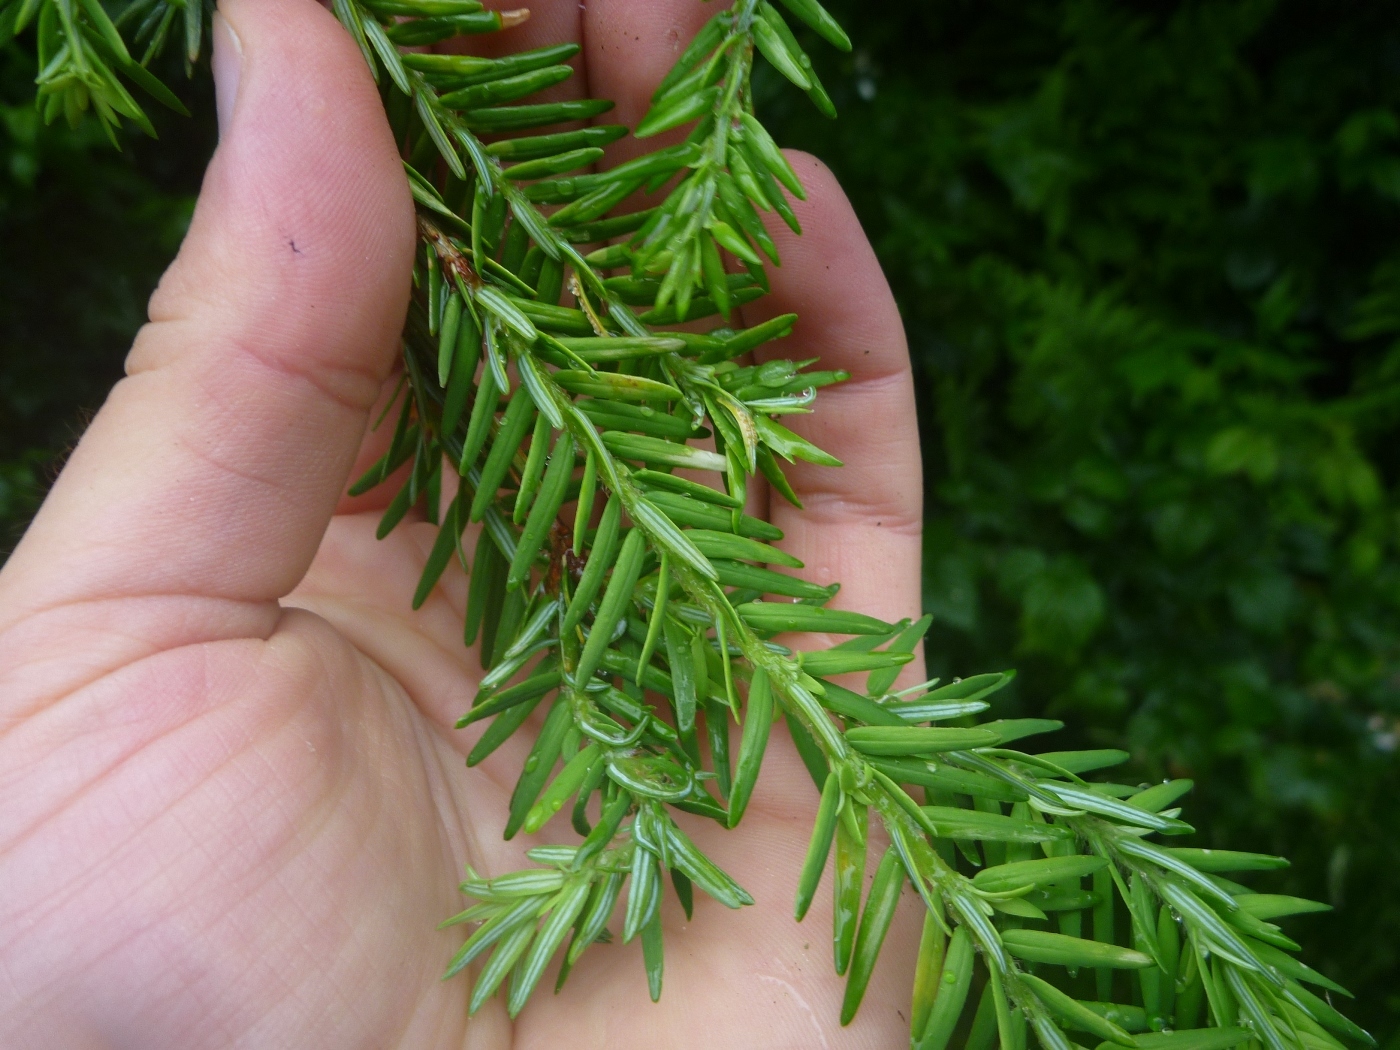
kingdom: Plantae
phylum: Tracheophyta
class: Pinopsida
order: Pinales
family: Pinaceae
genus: Tsuga
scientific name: Tsuga canadensis
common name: Eastern hemlock
